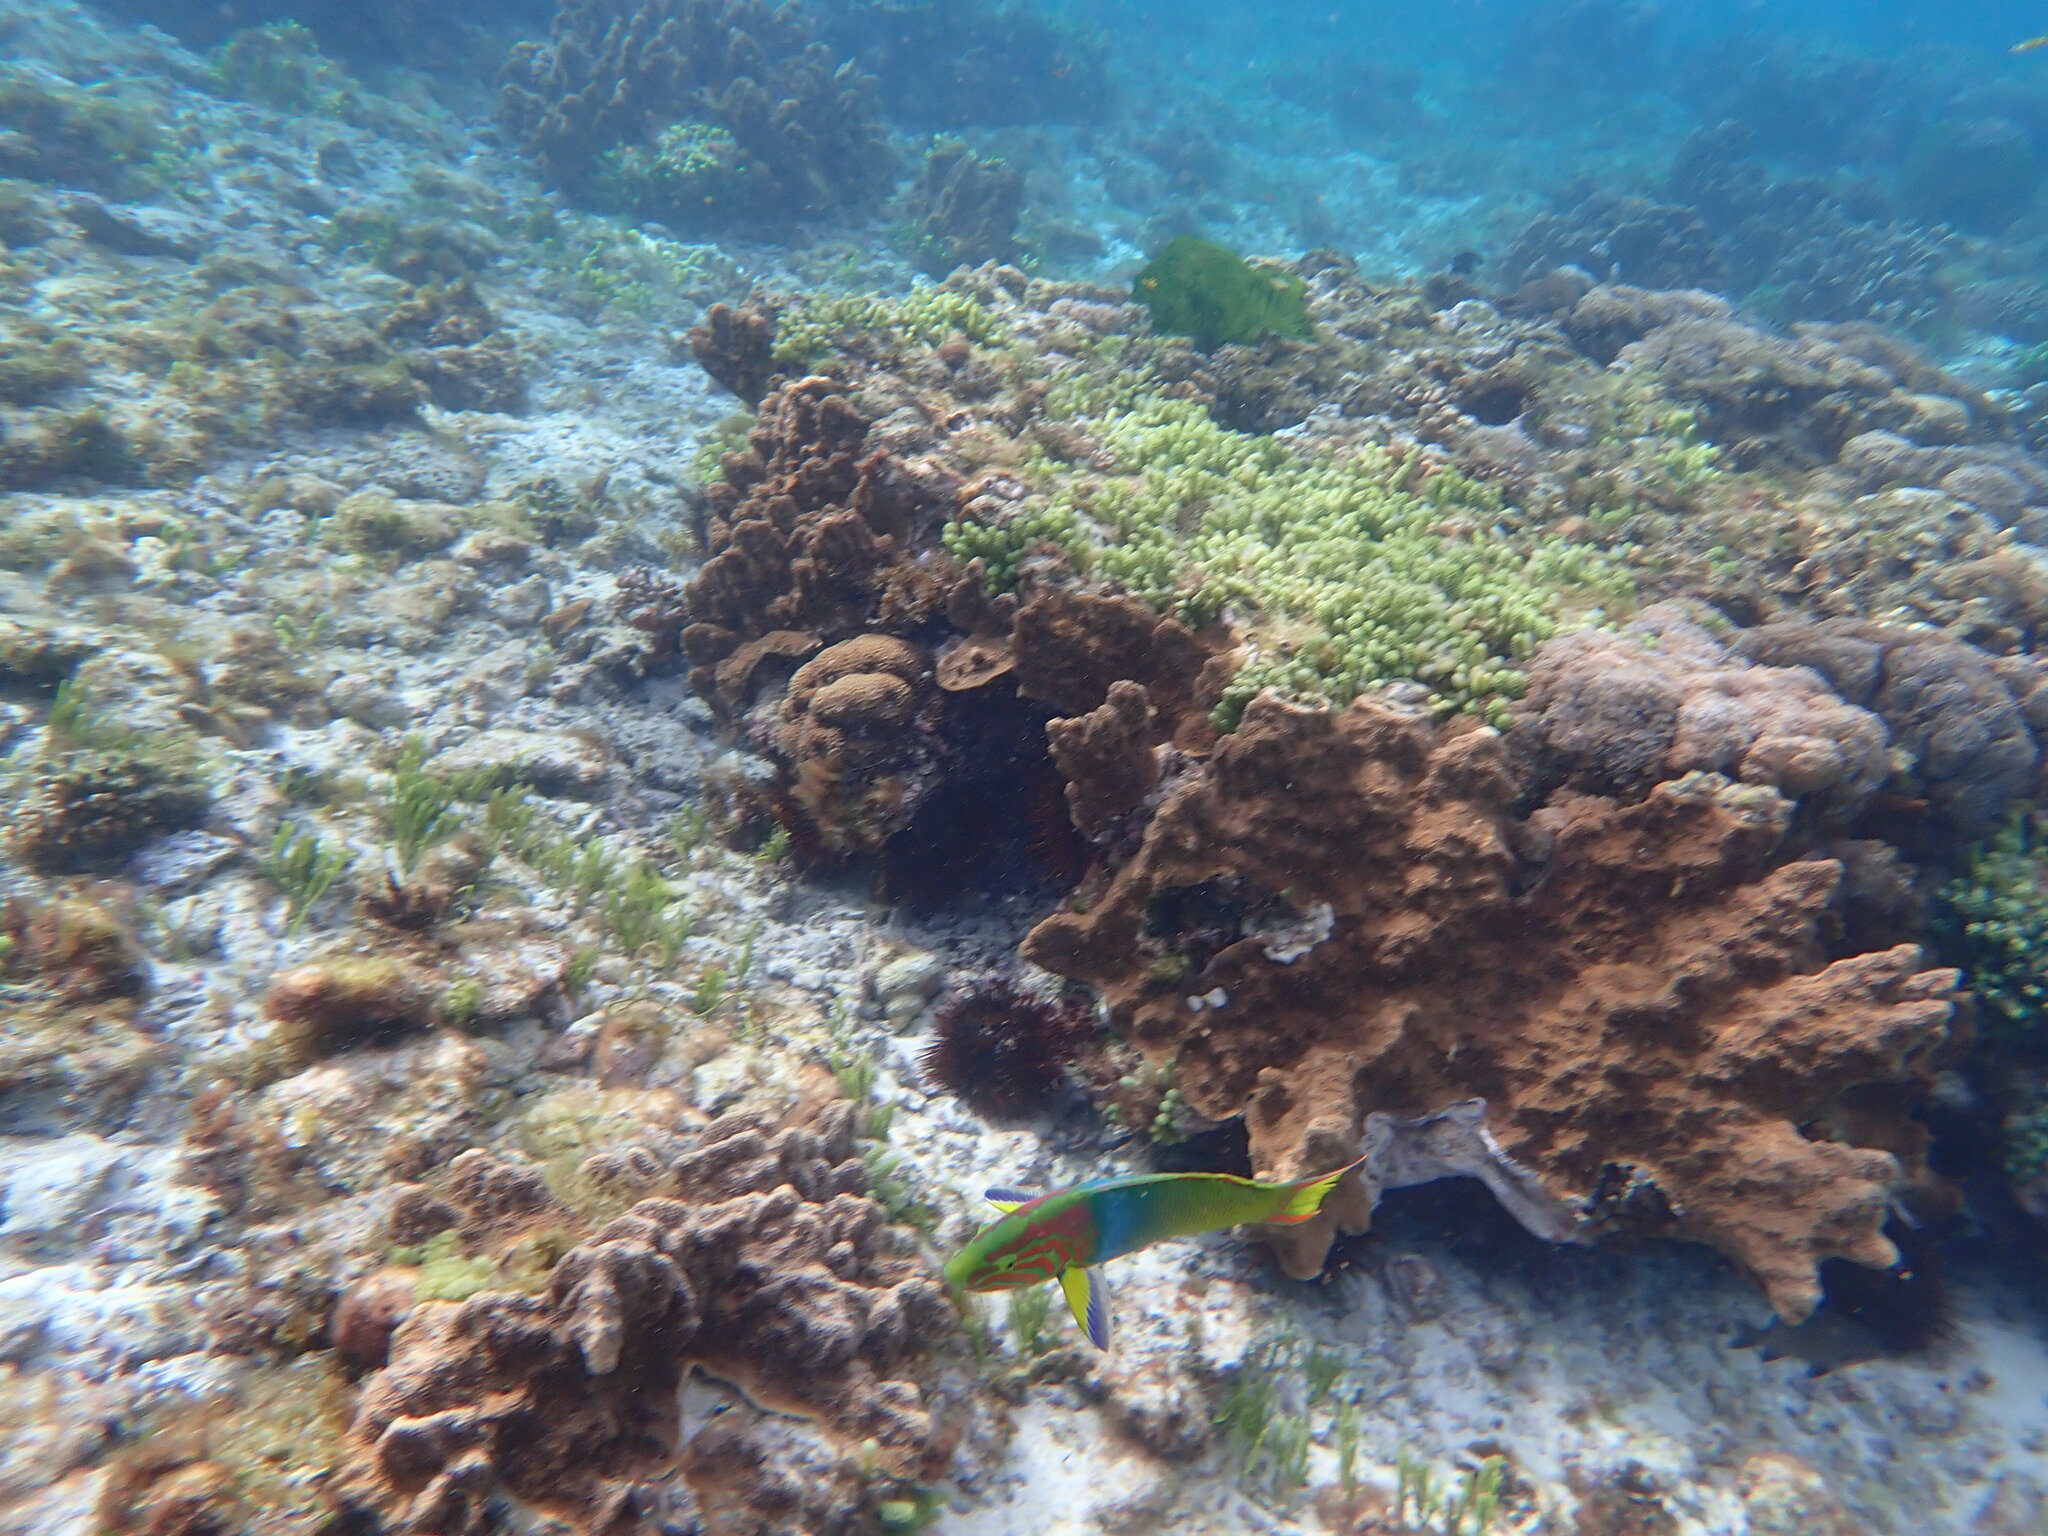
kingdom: Animalia
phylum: Chordata
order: Perciformes
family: Labridae
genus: Thalassoma
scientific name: Thalassoma lutescens
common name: Green moon wrasse
